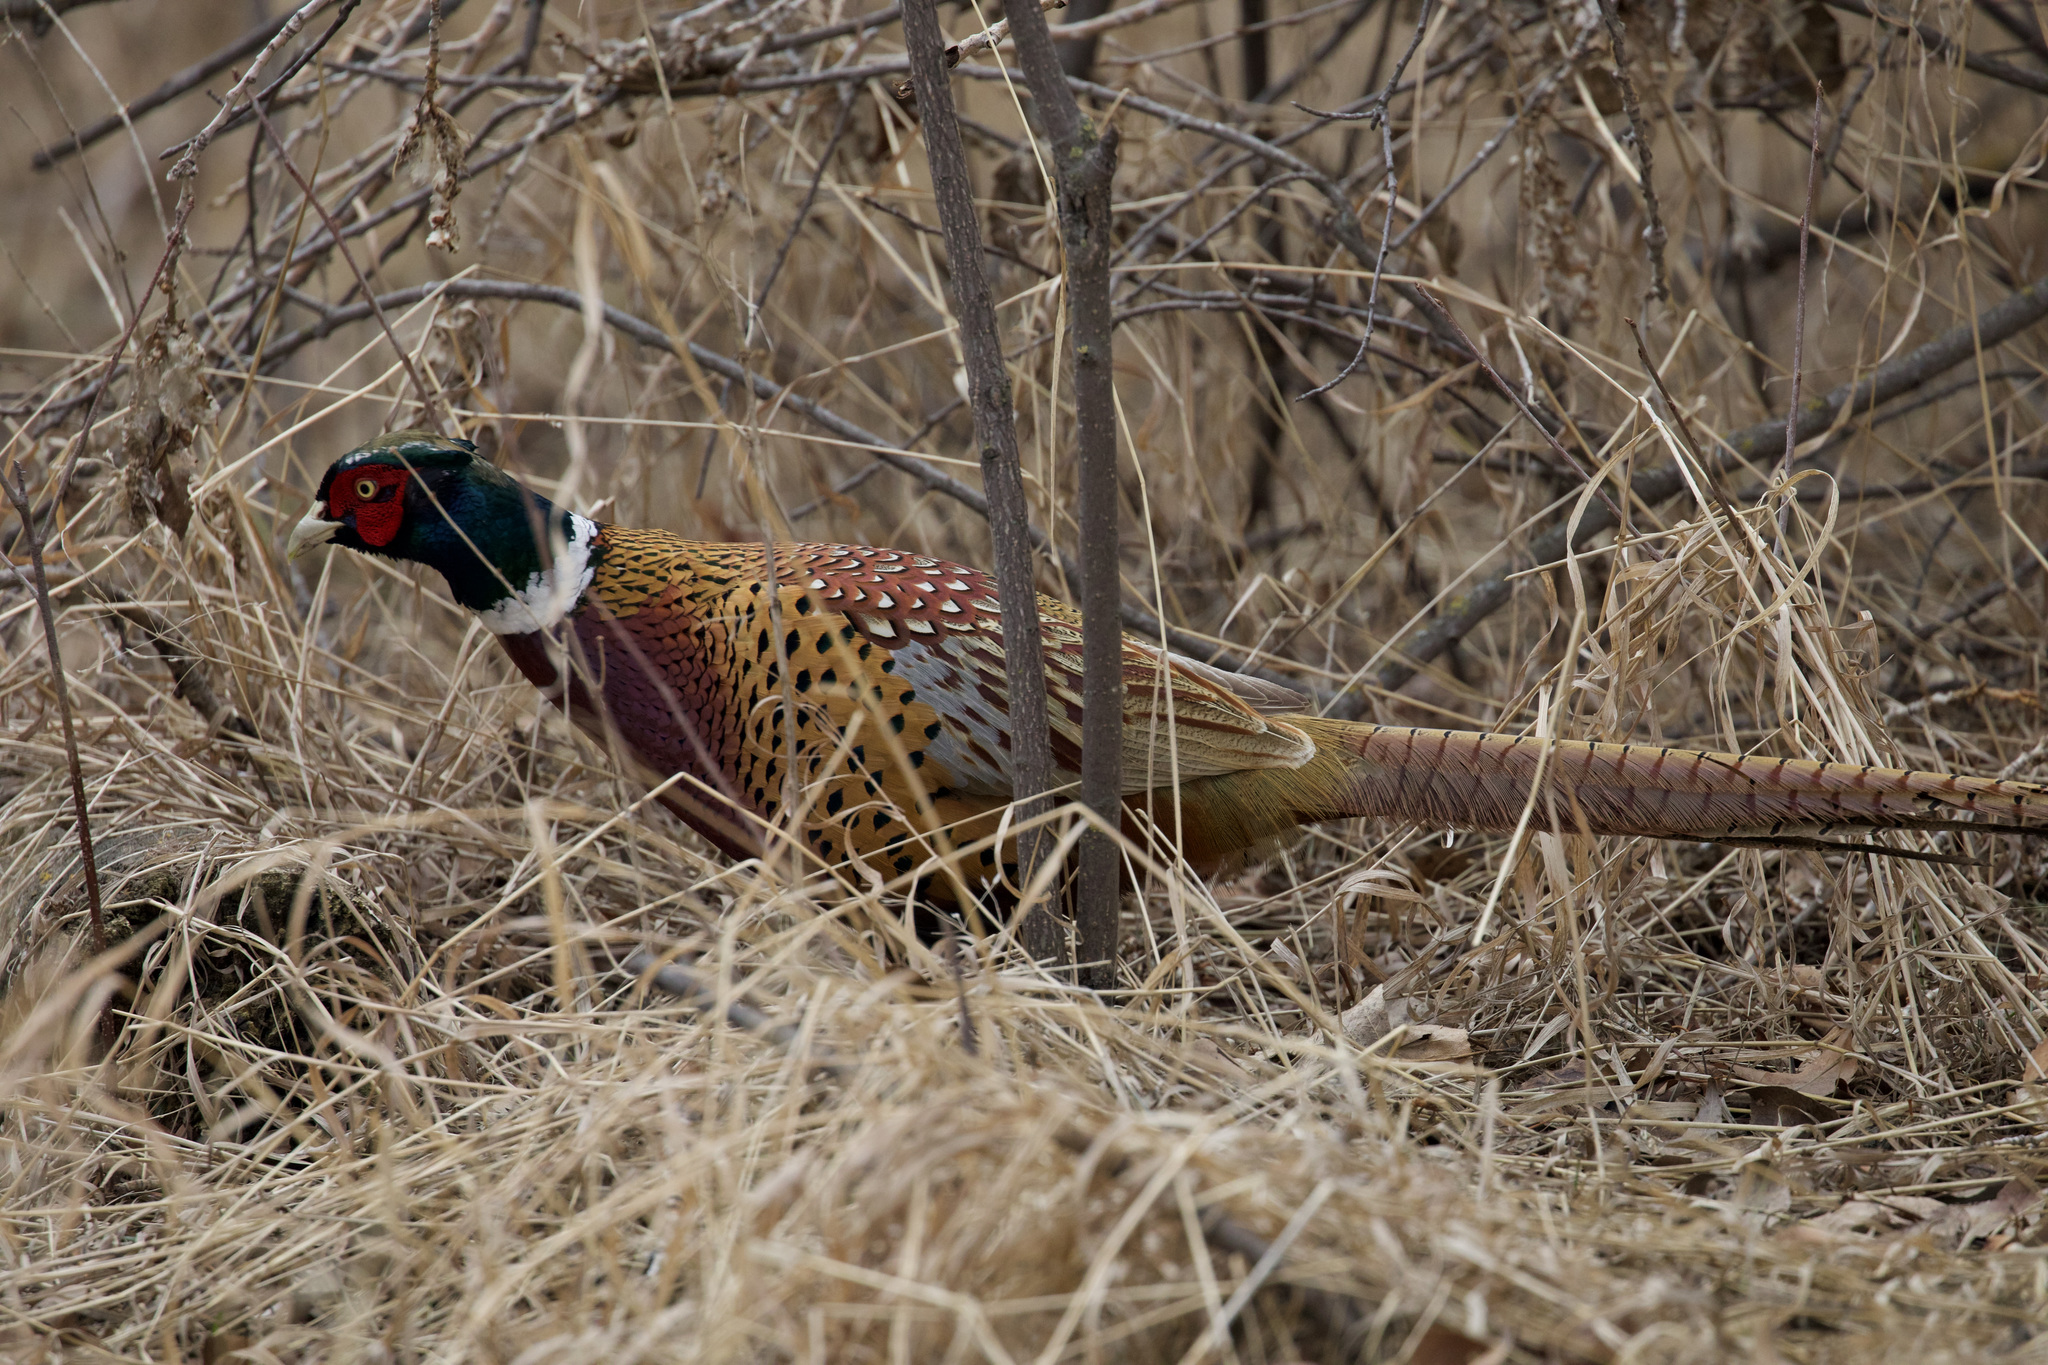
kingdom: Animalia
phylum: Chordata
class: Aves
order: Galliformes
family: Phasianidae
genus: Phasianus
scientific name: Phasianus colchicus
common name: Common pheasant
